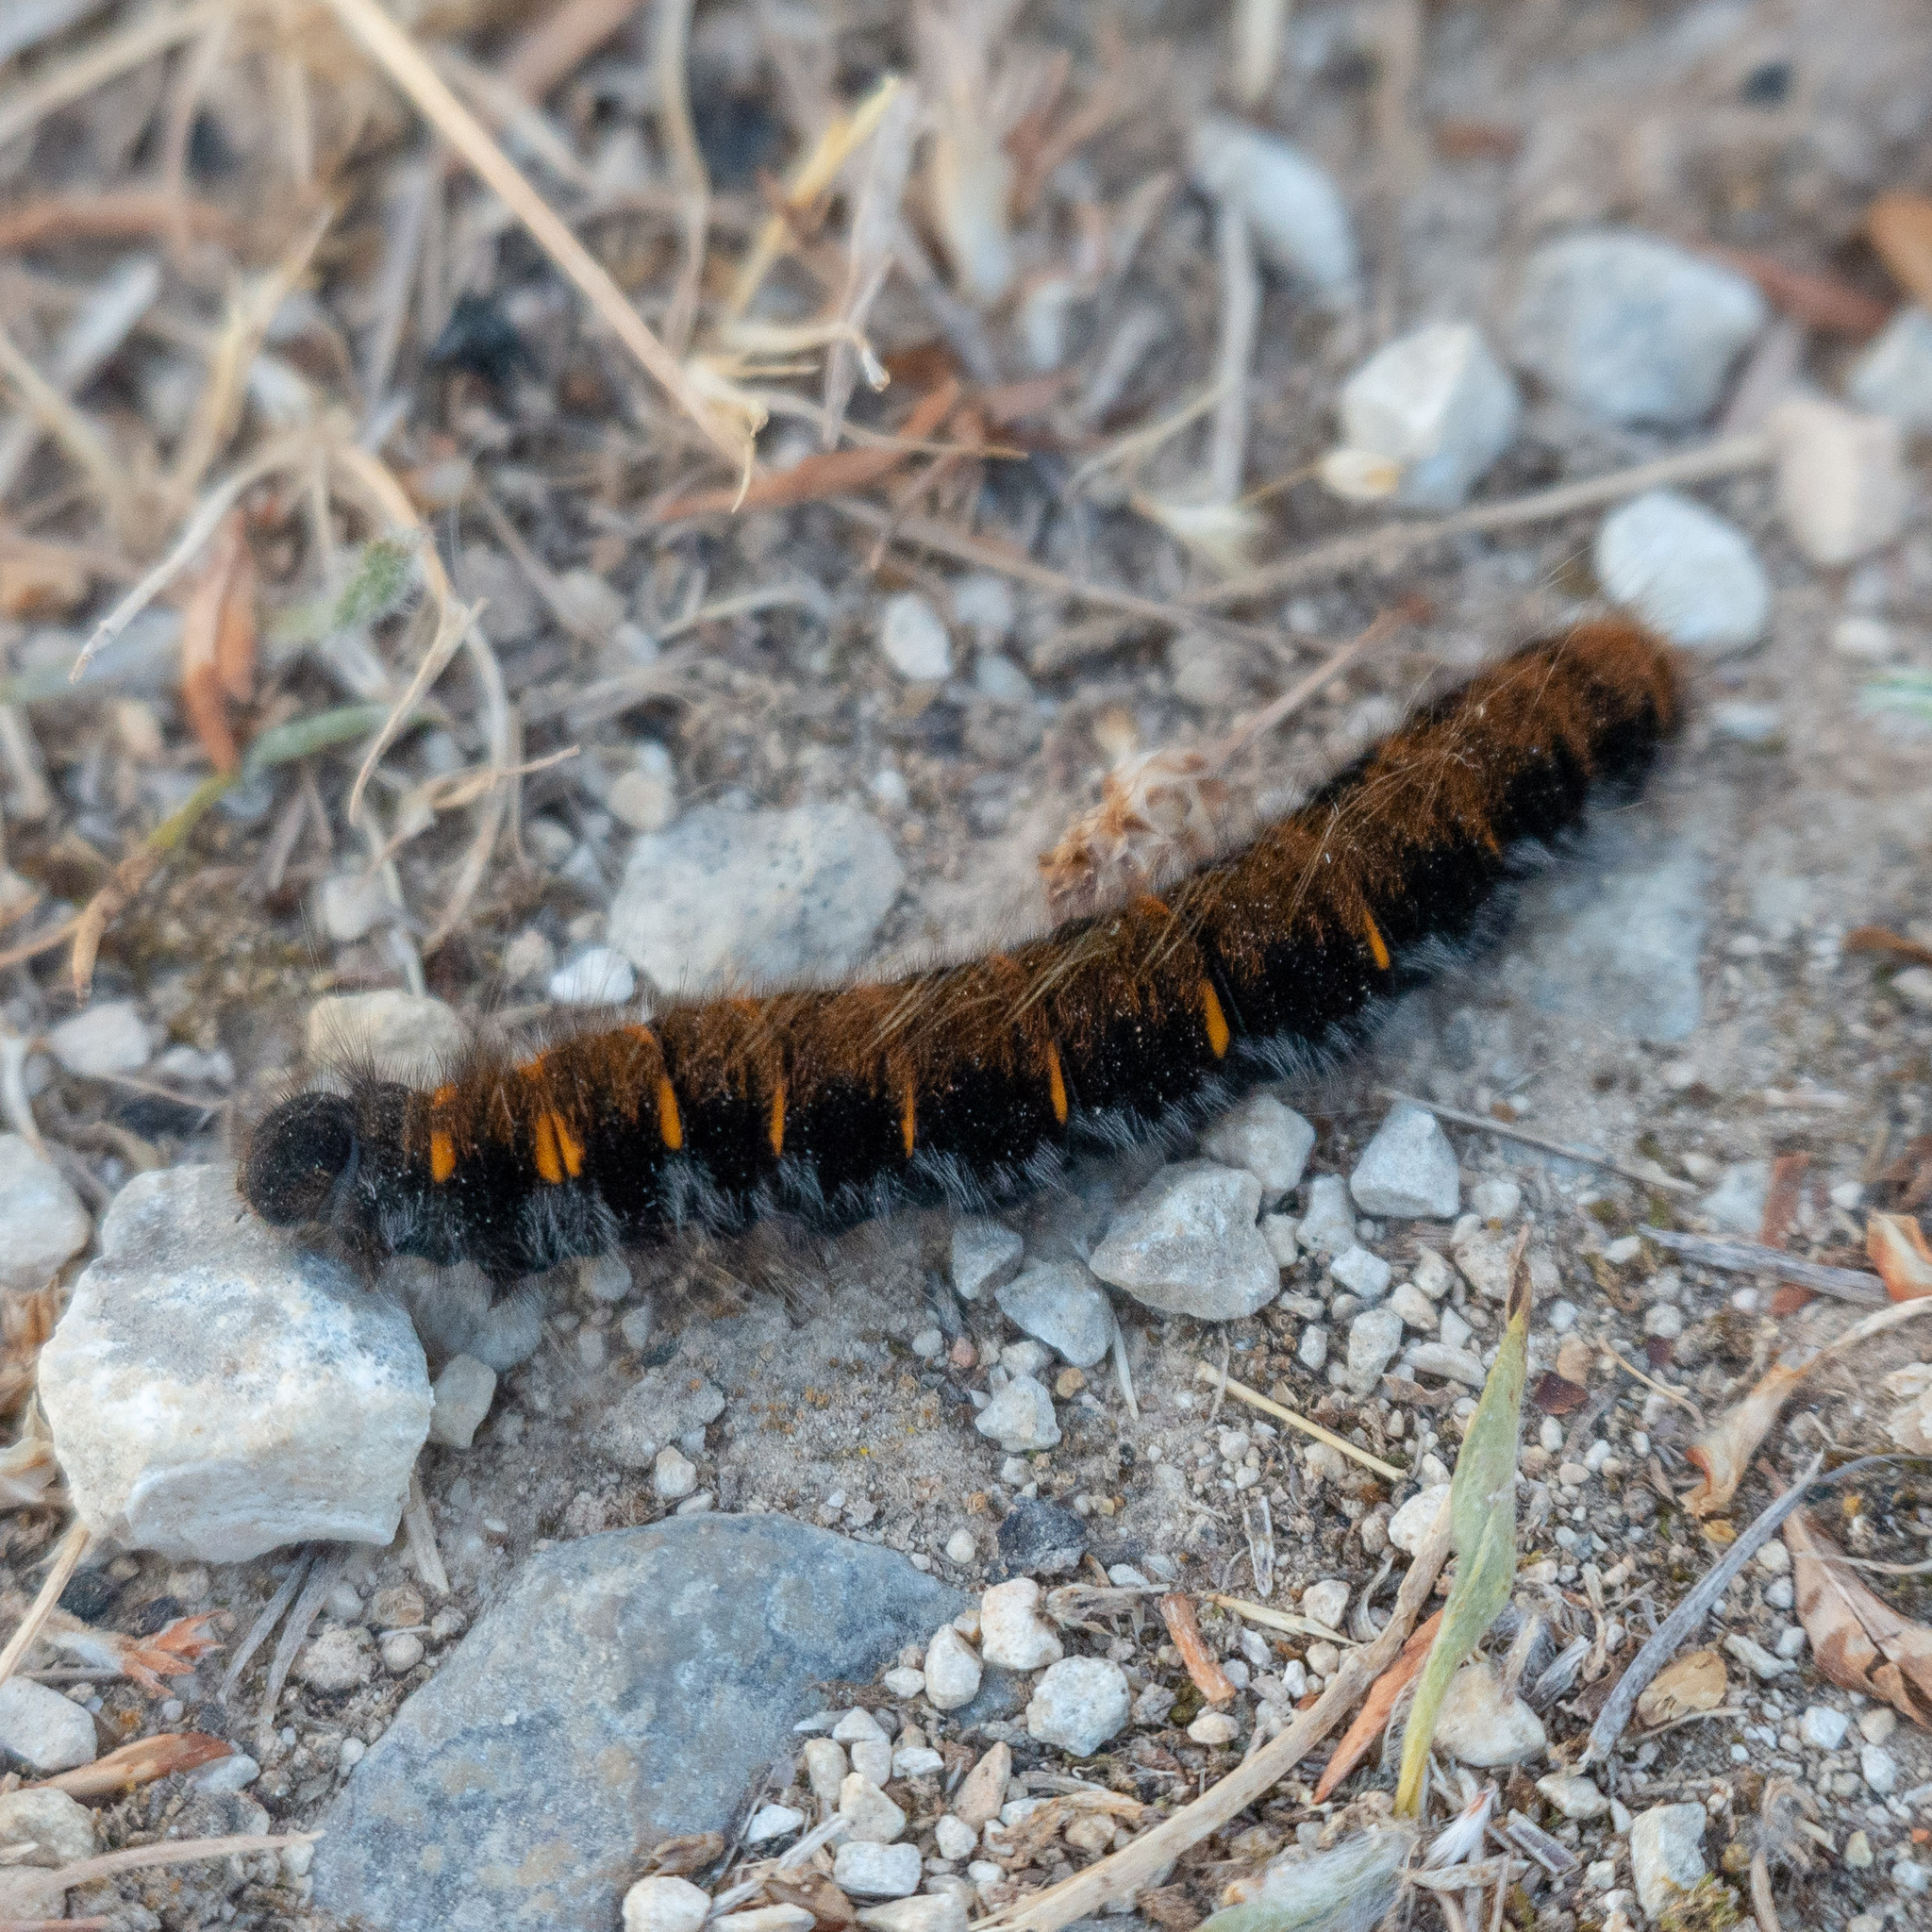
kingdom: Animalia
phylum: Arthropoda
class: Insecta
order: Lepidoptera
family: Lasiocampidae
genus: Macrothylacia
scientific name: Macrothylacia rubi
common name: Fox moth
